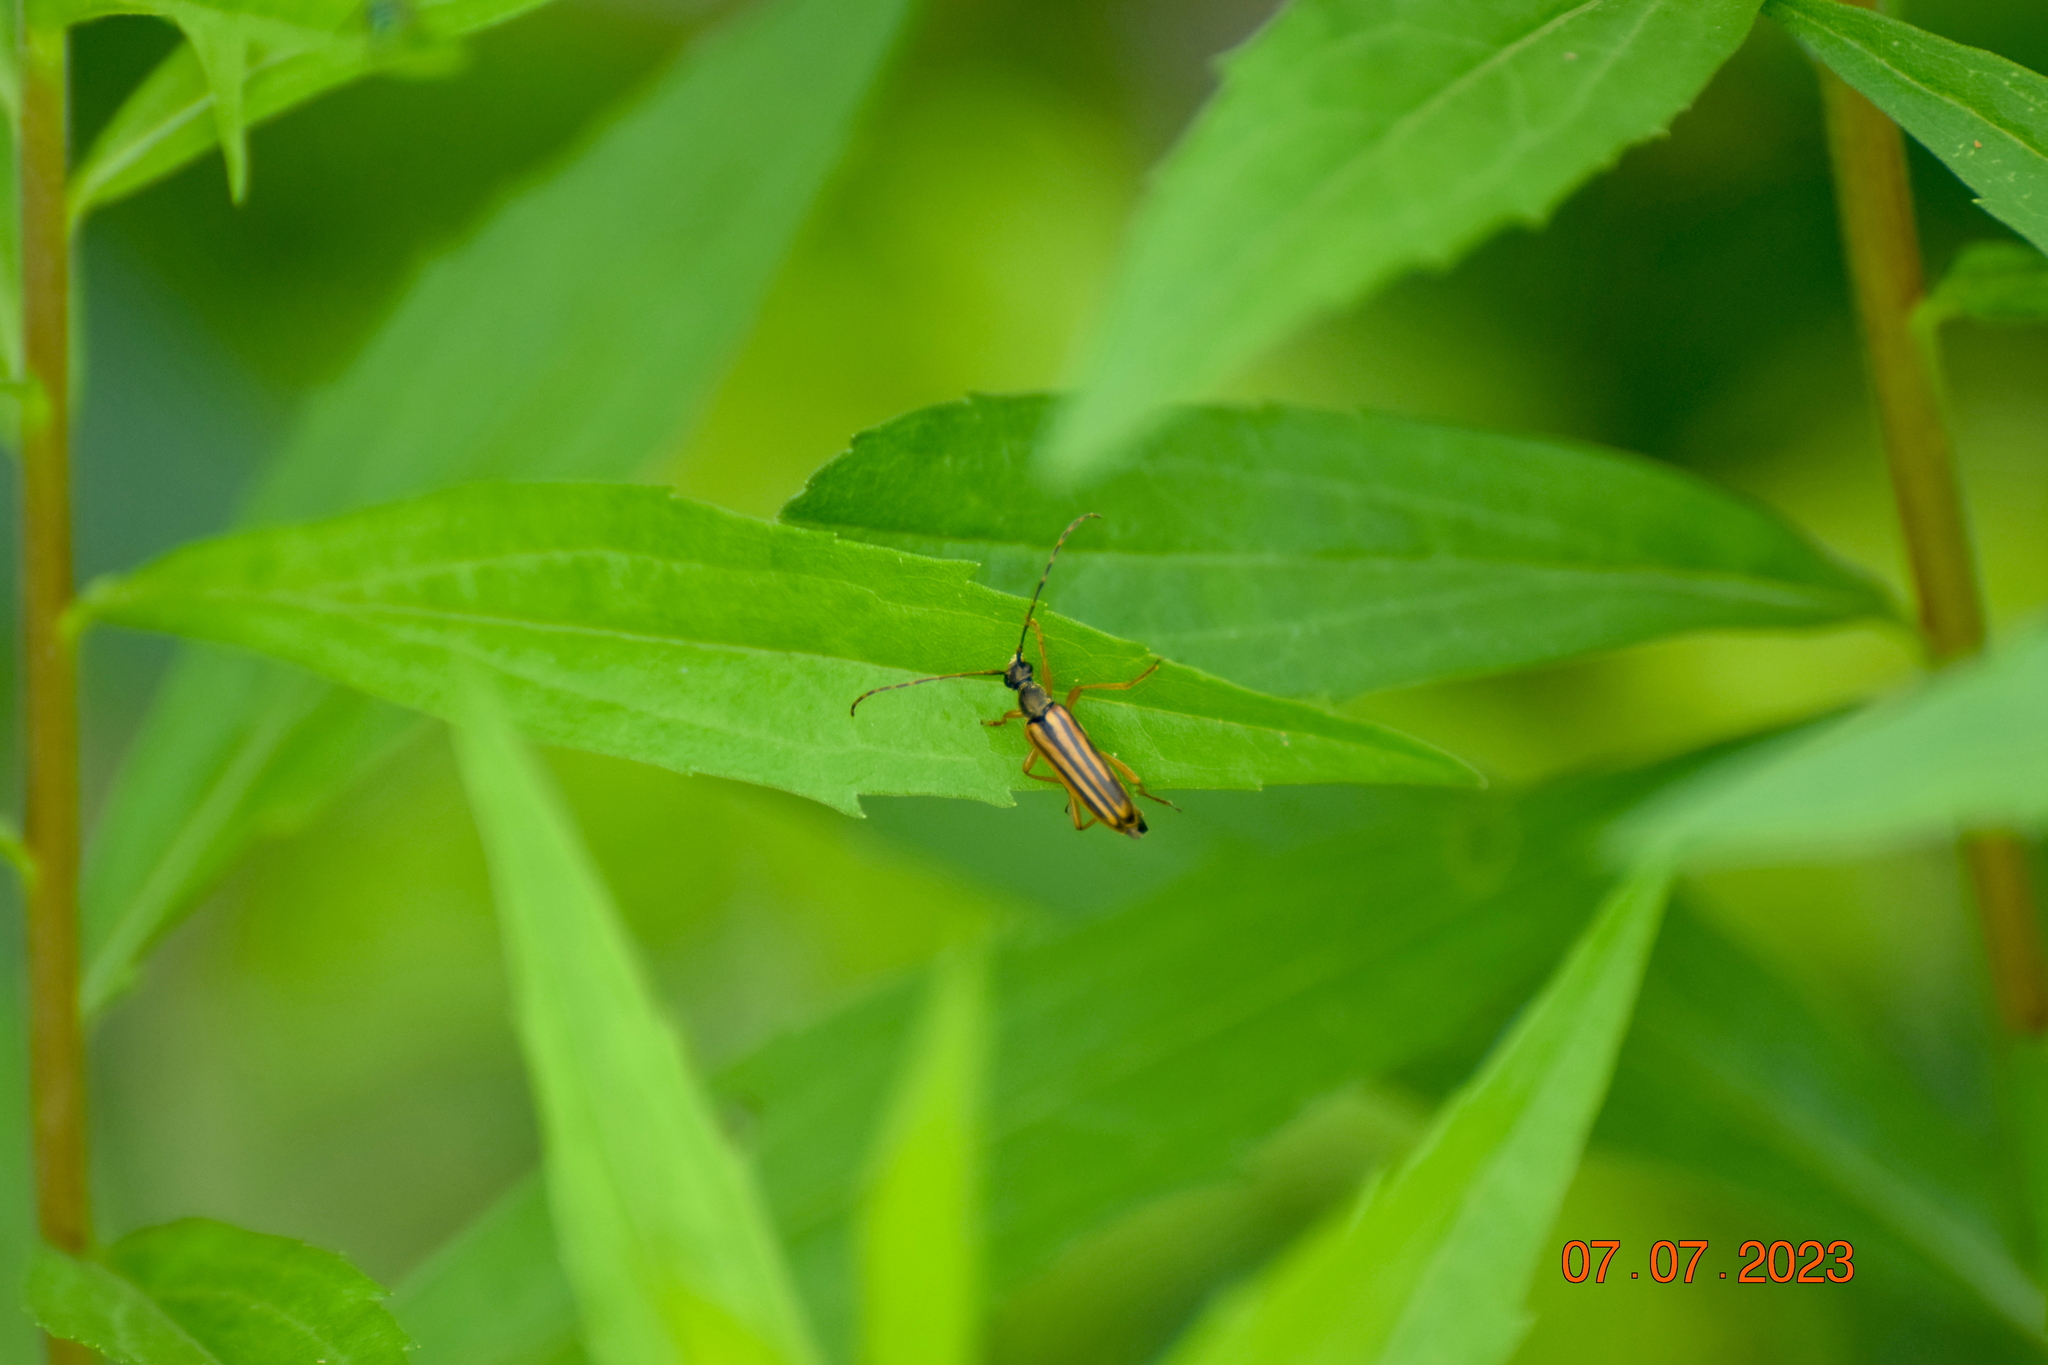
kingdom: Animalia
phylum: Arthropoda
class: Insecta
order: Coleoptera
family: Cerambycidae
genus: Analeptura
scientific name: Analeptura lineola
